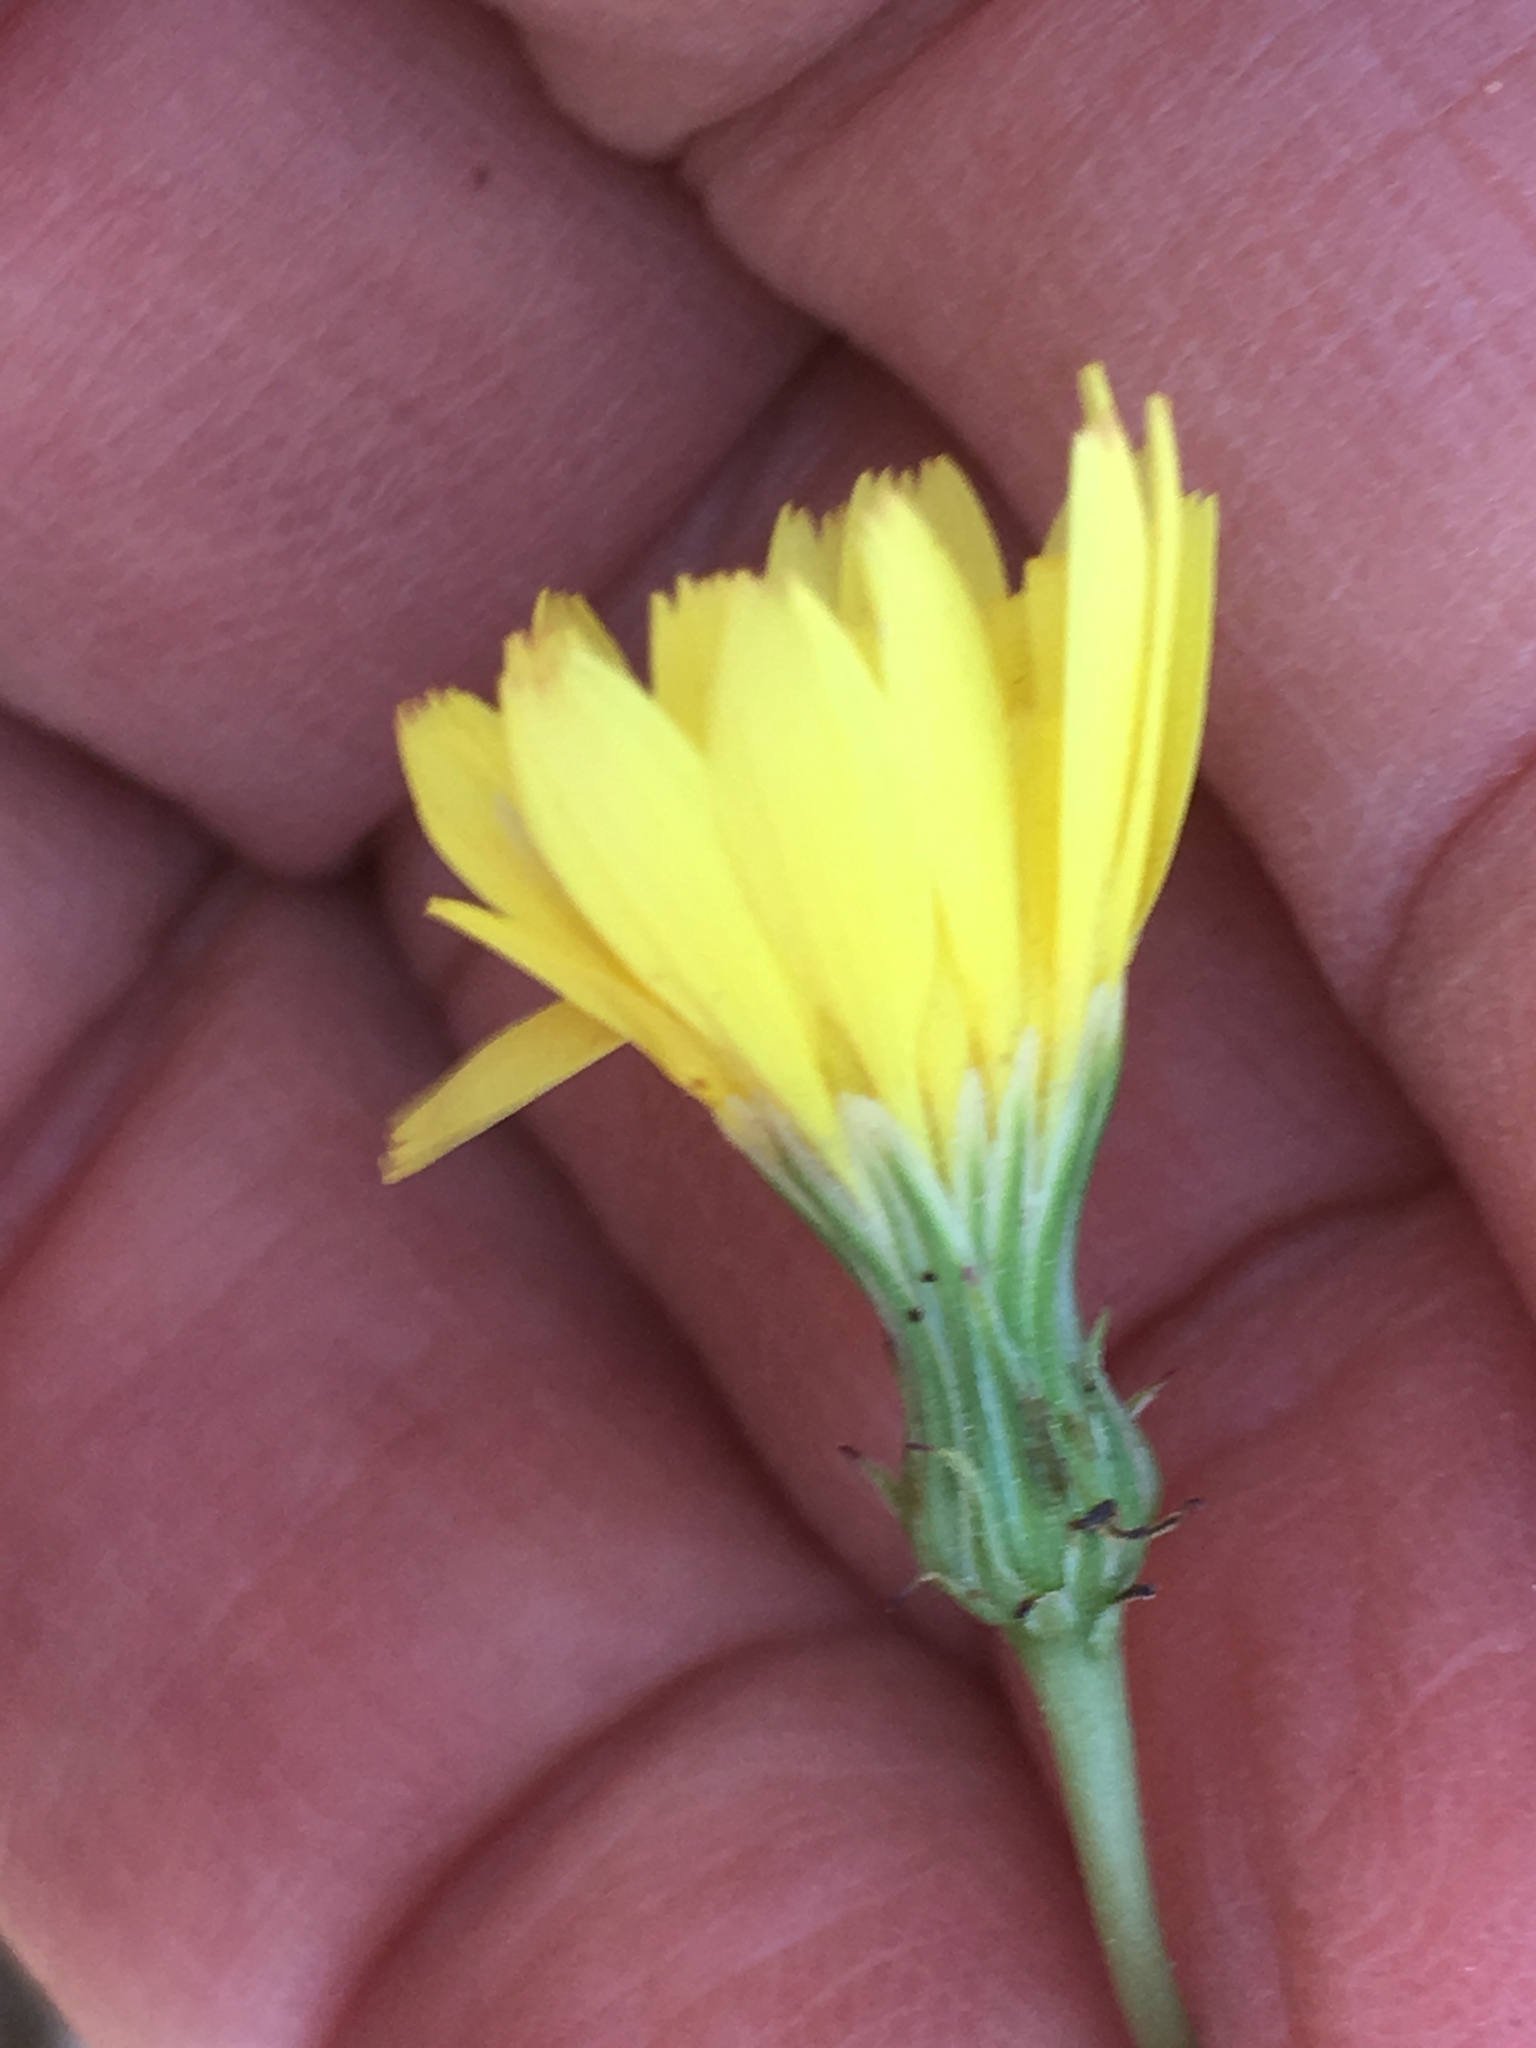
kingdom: Plantae
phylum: Tracheophyta
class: Magnoliopsida
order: Asterales
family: Asteraceae
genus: Malacothrix
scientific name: Malacothrix glabrata
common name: Smooth desert-dandelion
